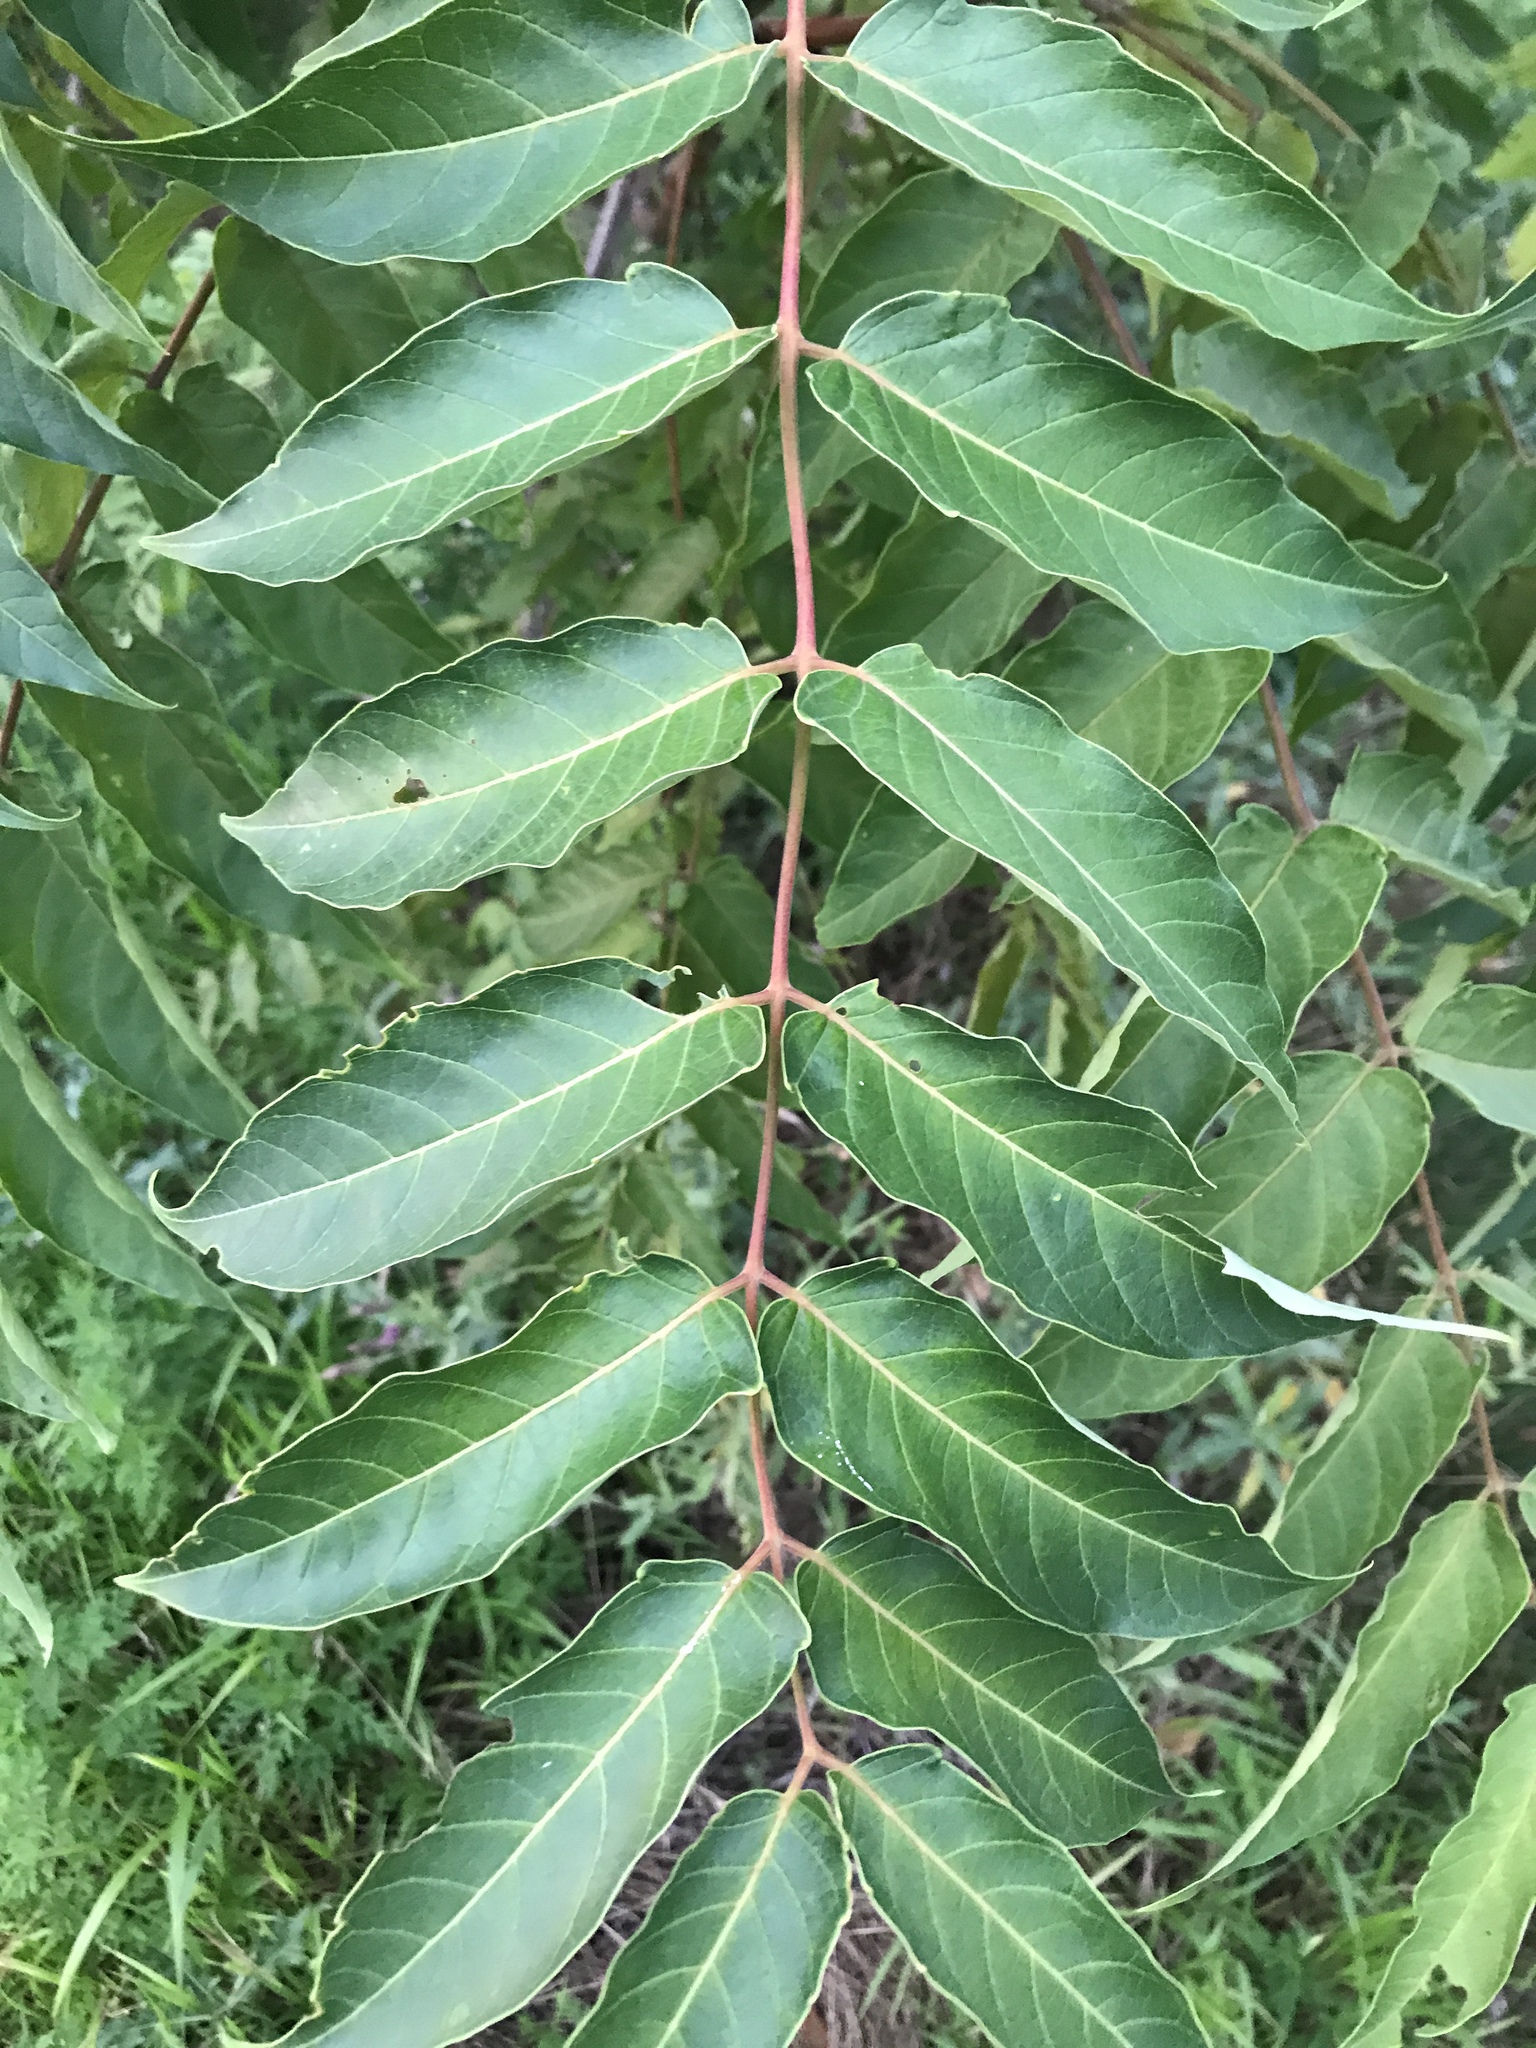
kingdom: Plantae
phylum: Tracheophyta
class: Magnoliopsida
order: Sapindales
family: Simaroubaceae
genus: Ailanthus
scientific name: Ailanthus altissima
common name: Tree-of-heaven
